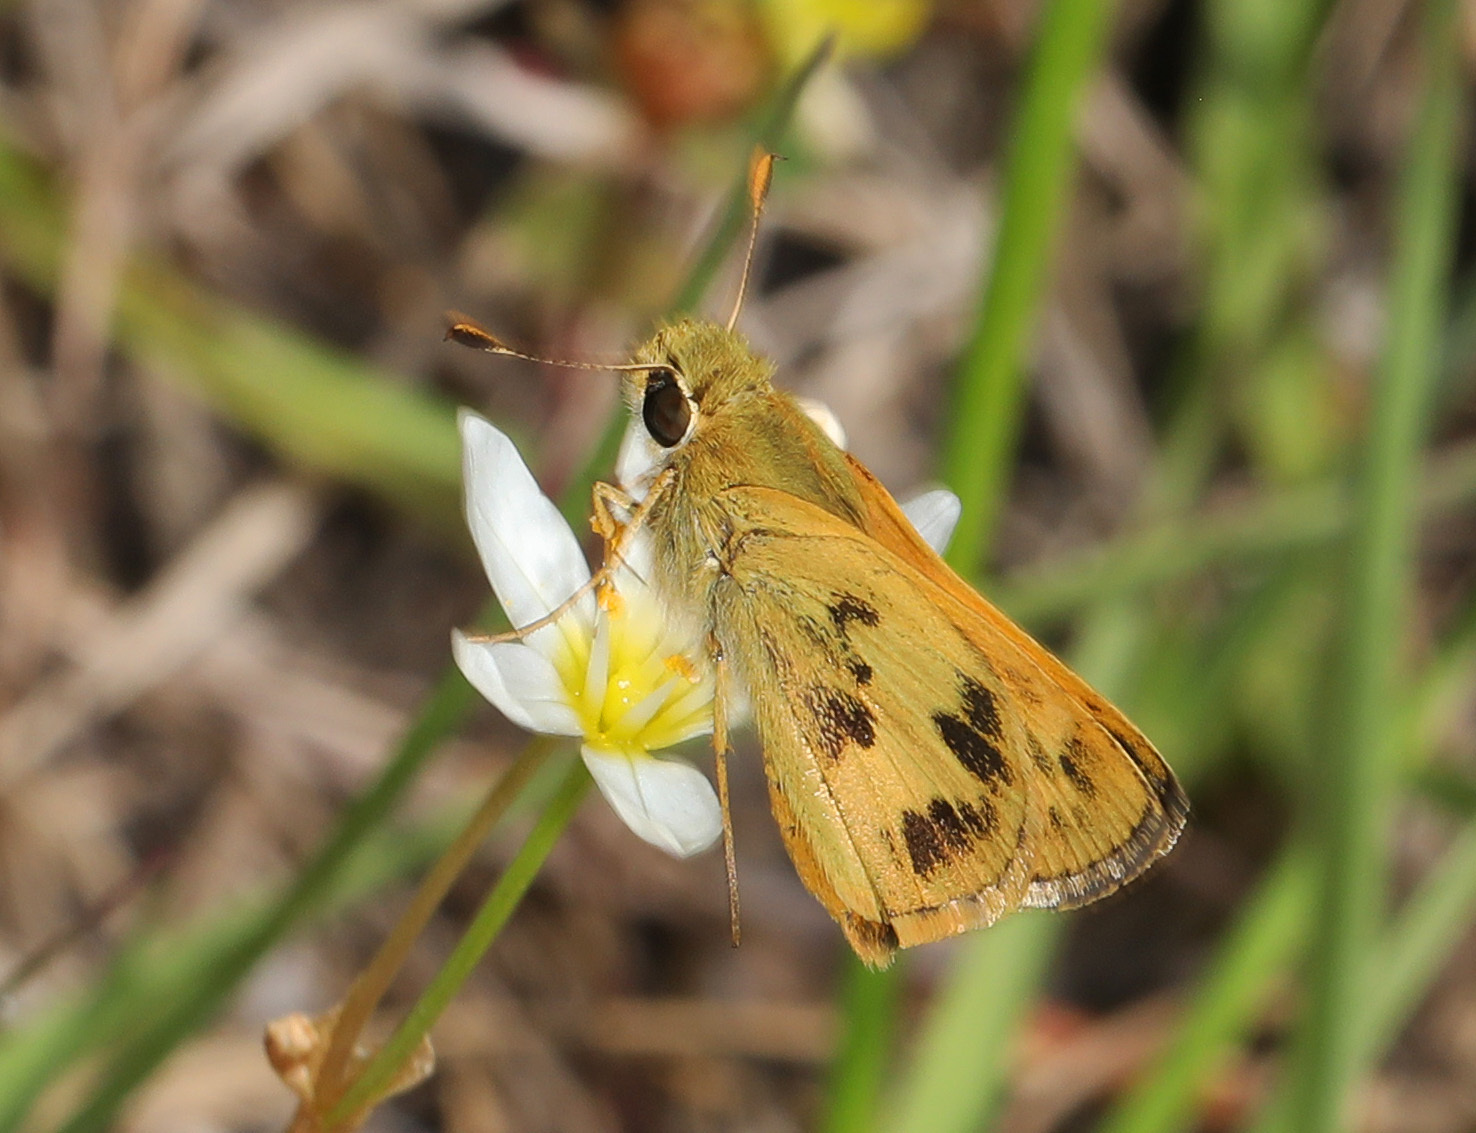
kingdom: Animalia
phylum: Arthropoda
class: Insecta
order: Lepidoptera
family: Hesperiidae
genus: Polites
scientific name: Polites vibex
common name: Whirlabout
